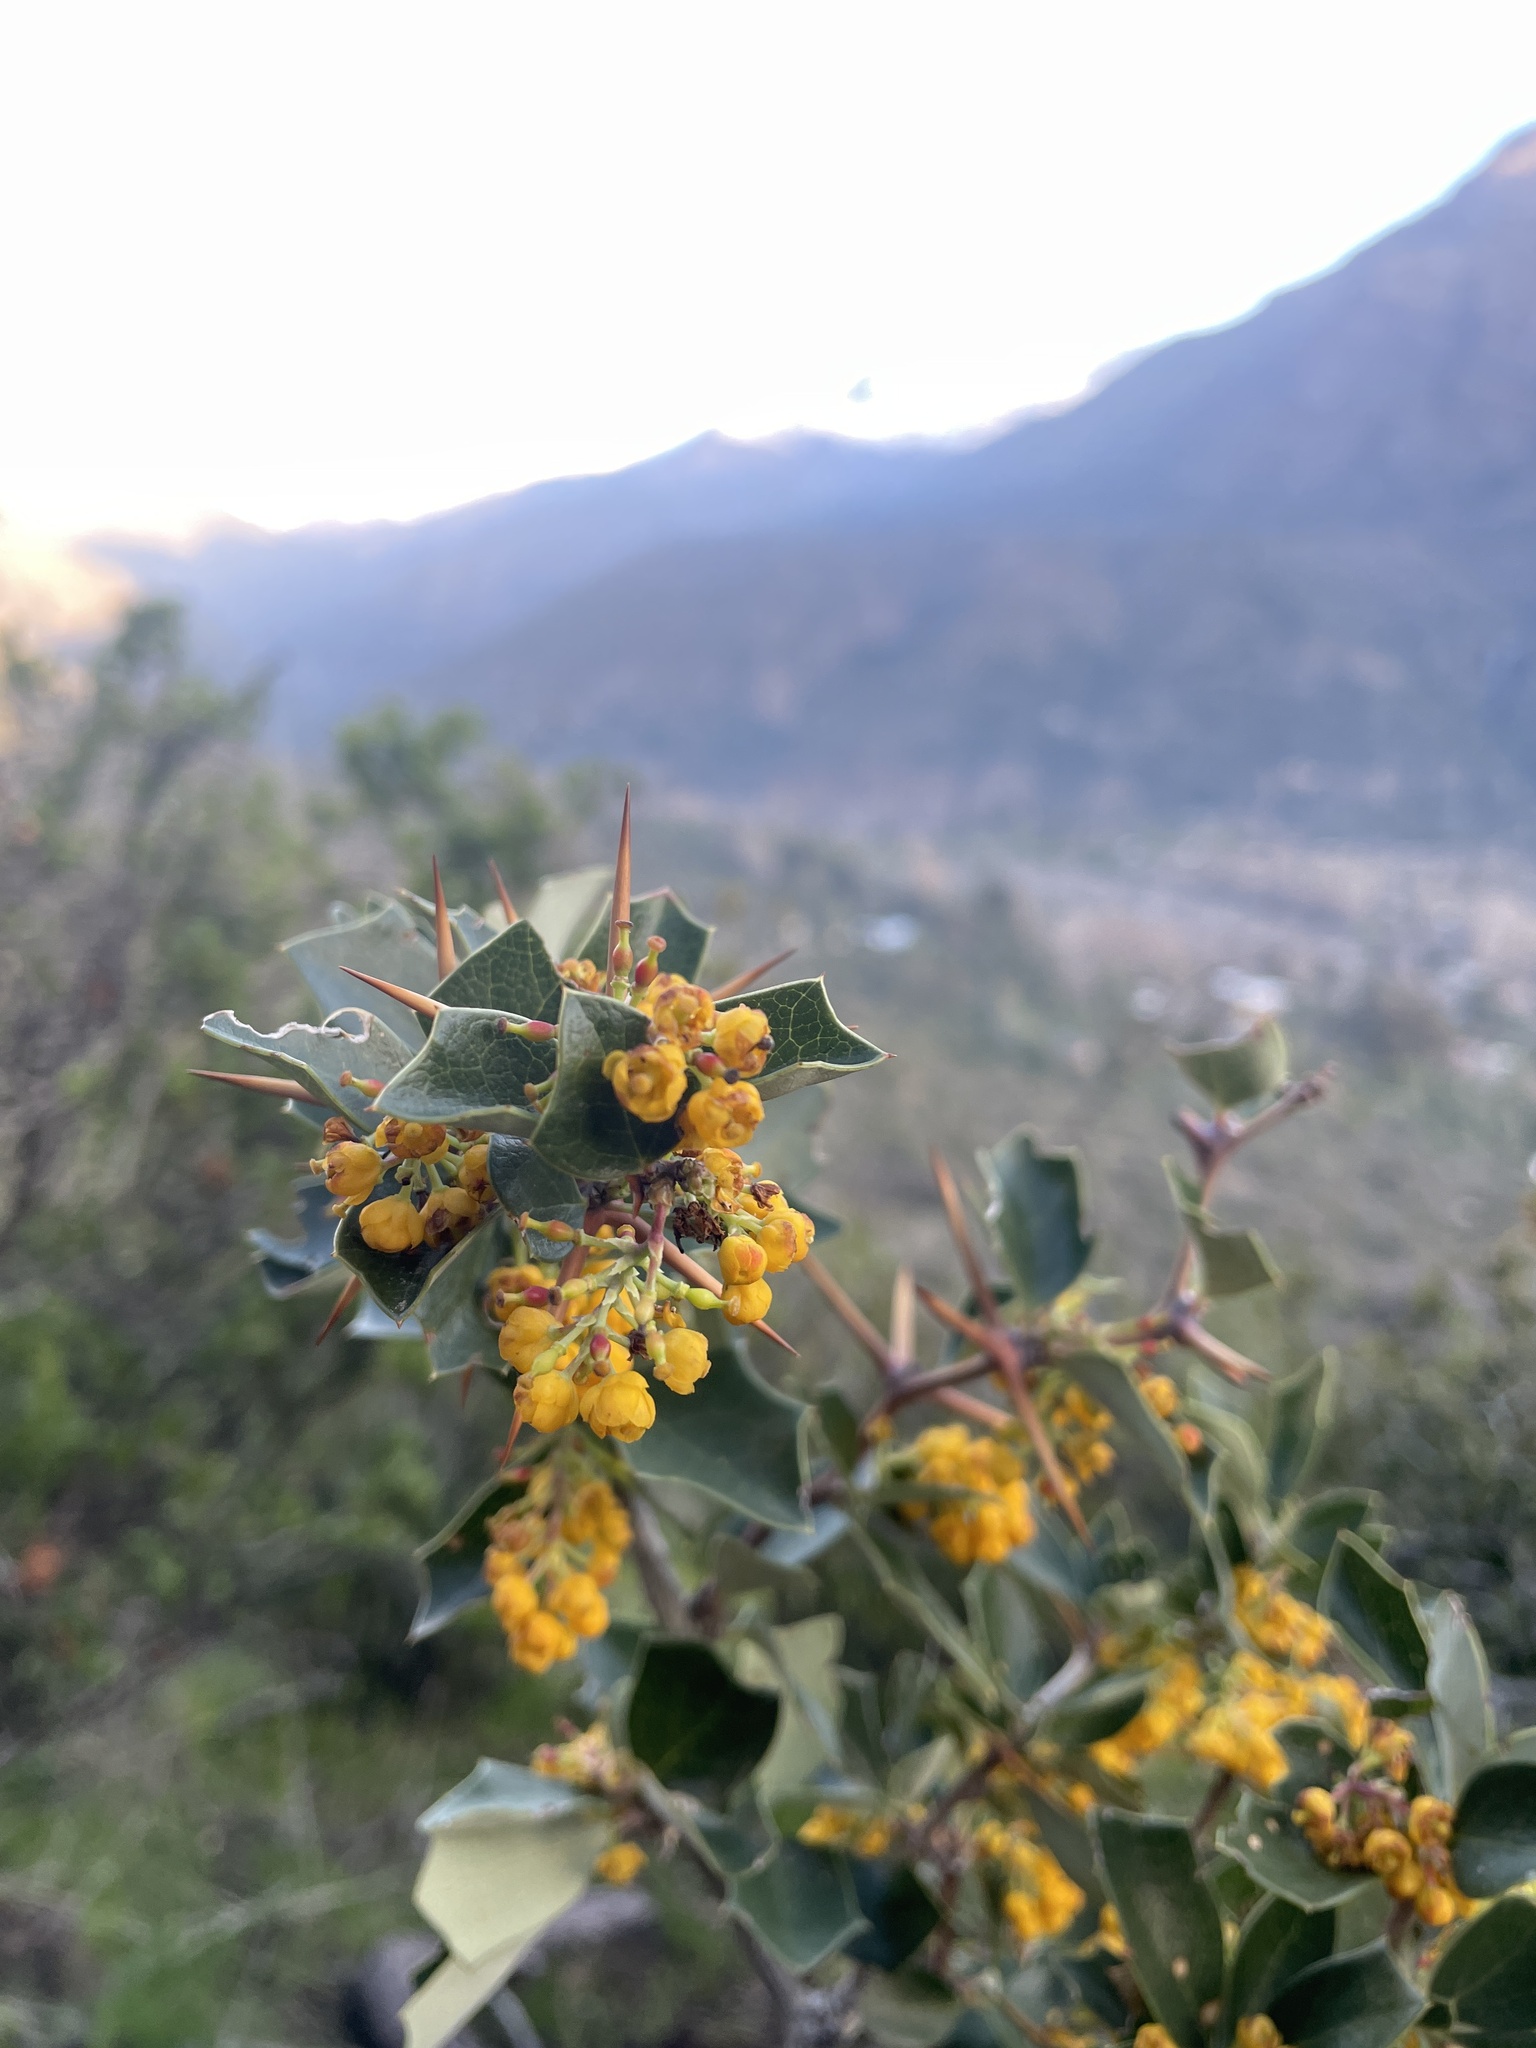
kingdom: Plantae
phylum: Tracheophyta
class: Magnoliopsida
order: Ranunculales
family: Berberidaceae
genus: Berberis
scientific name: Berberis chilensis
